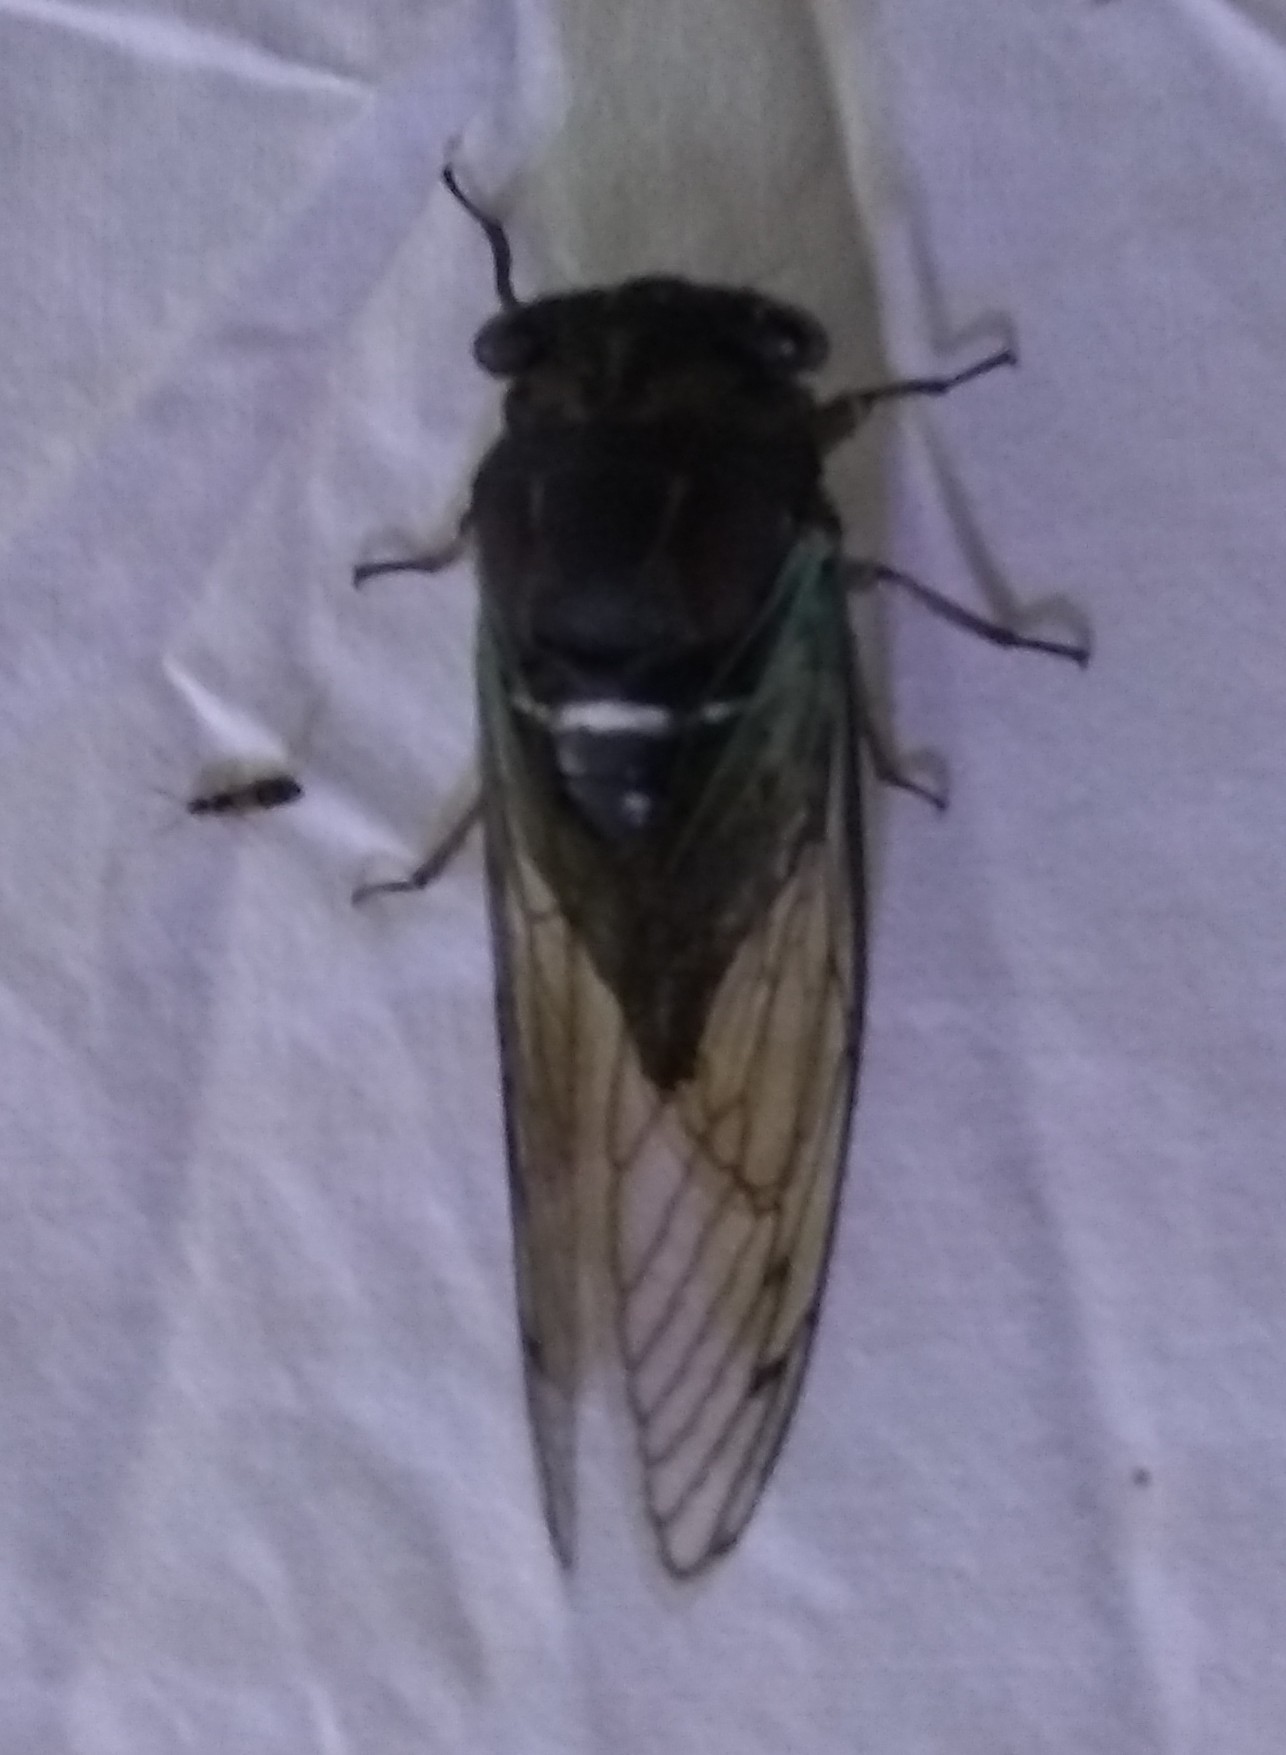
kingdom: Animalia
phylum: Arthropoda
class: Insecta
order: Hemiptera
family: Cicadidae
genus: Neotibicen
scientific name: Neotibicen lyricen
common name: Lyric cicada
